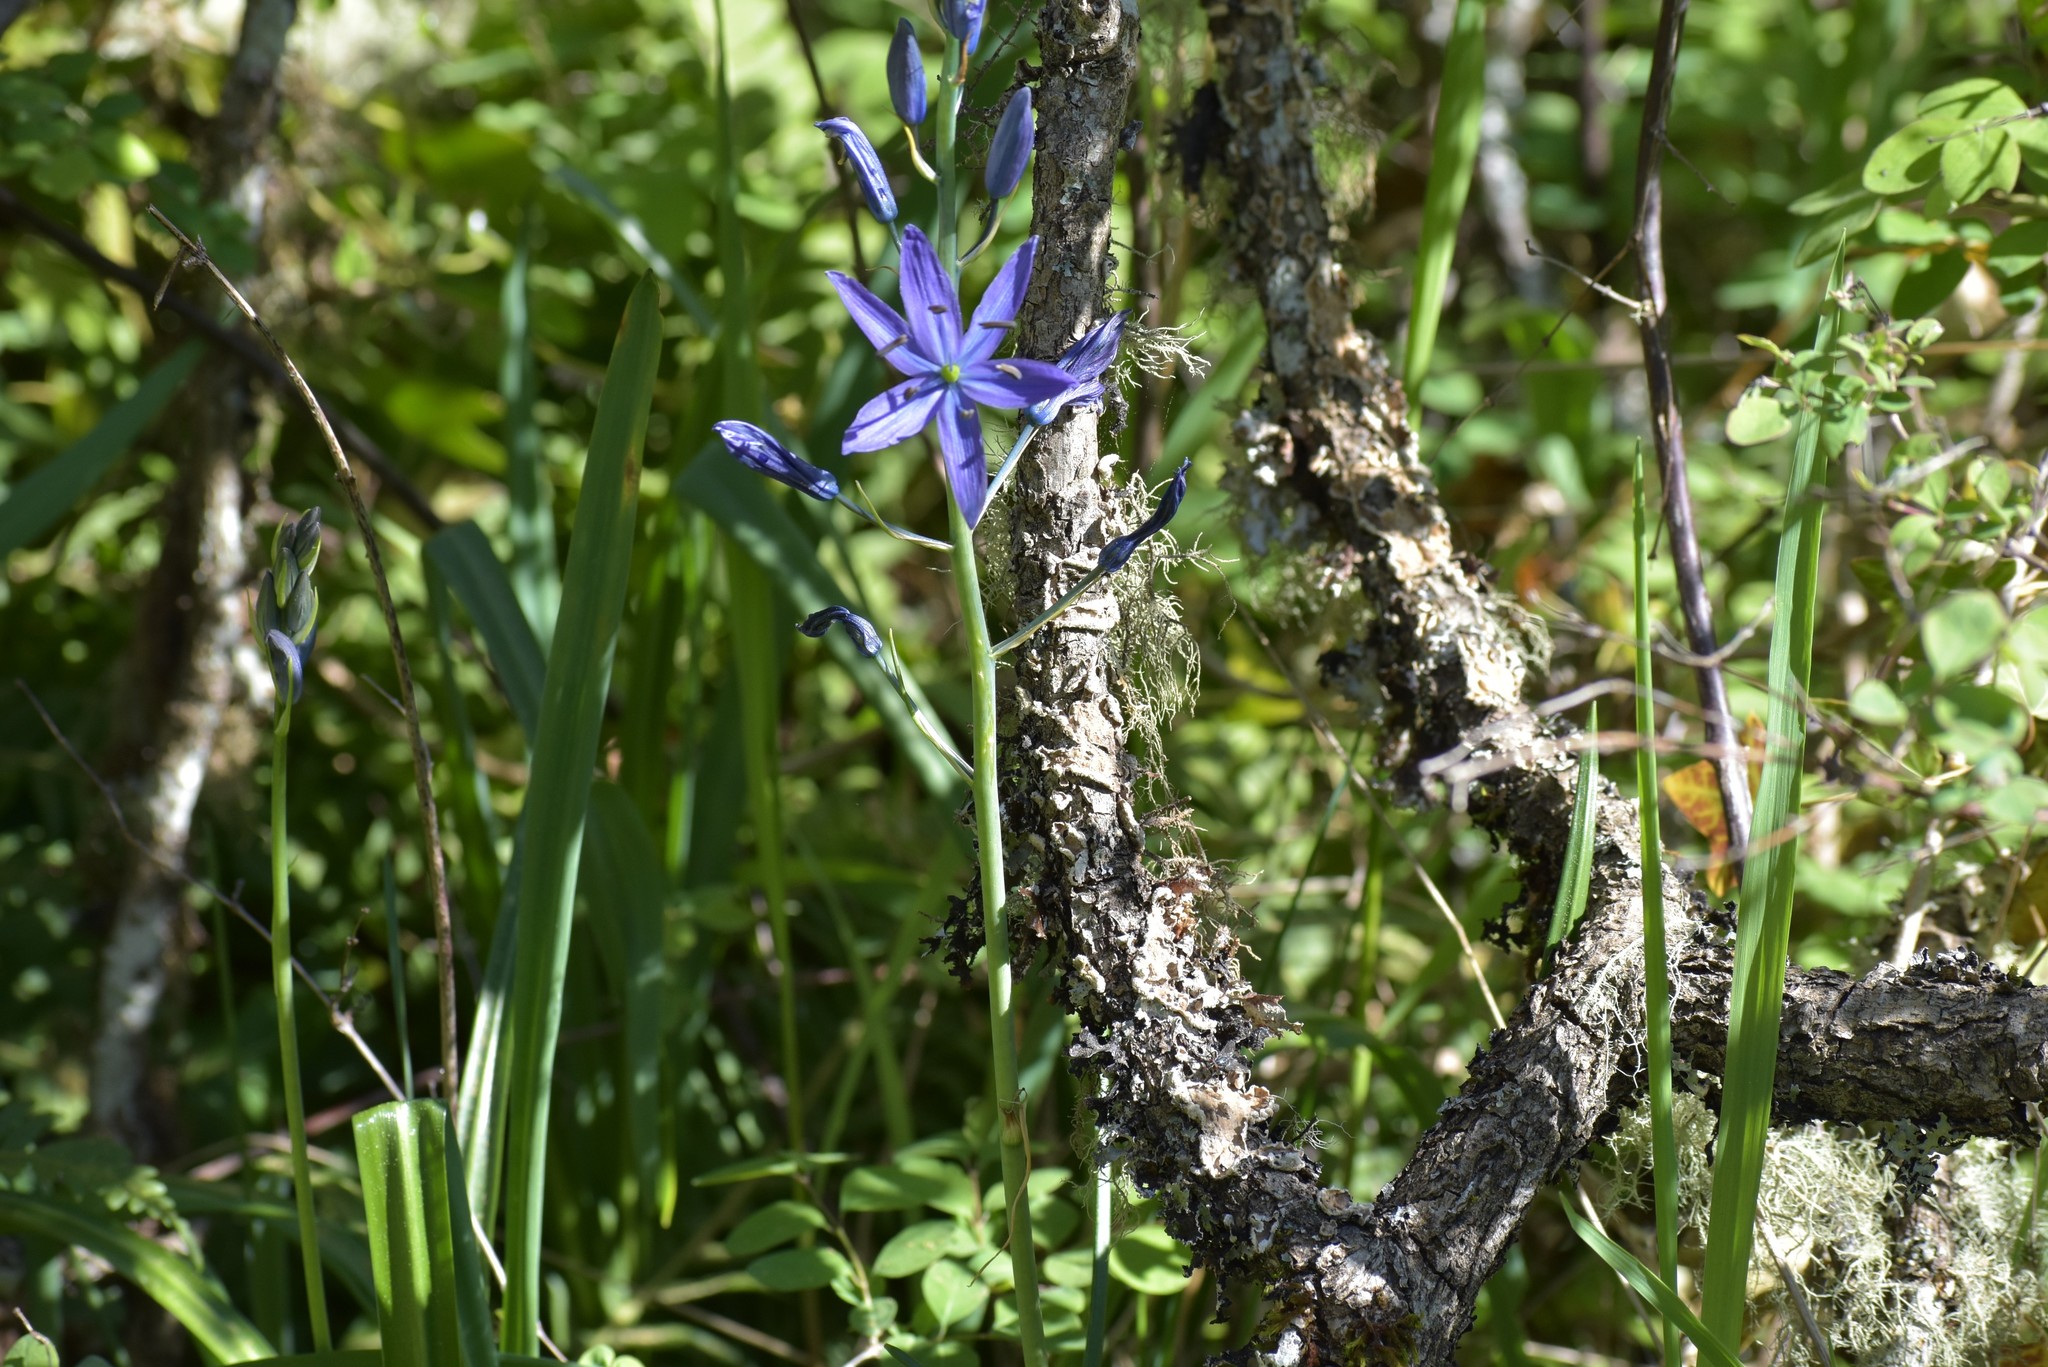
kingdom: Plantae
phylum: Tracheophyta
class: Liliopsida
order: Asparagales
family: Asparagaceae
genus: Camassia
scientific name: Camassia leichtlinii
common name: Leichtlin's camas
